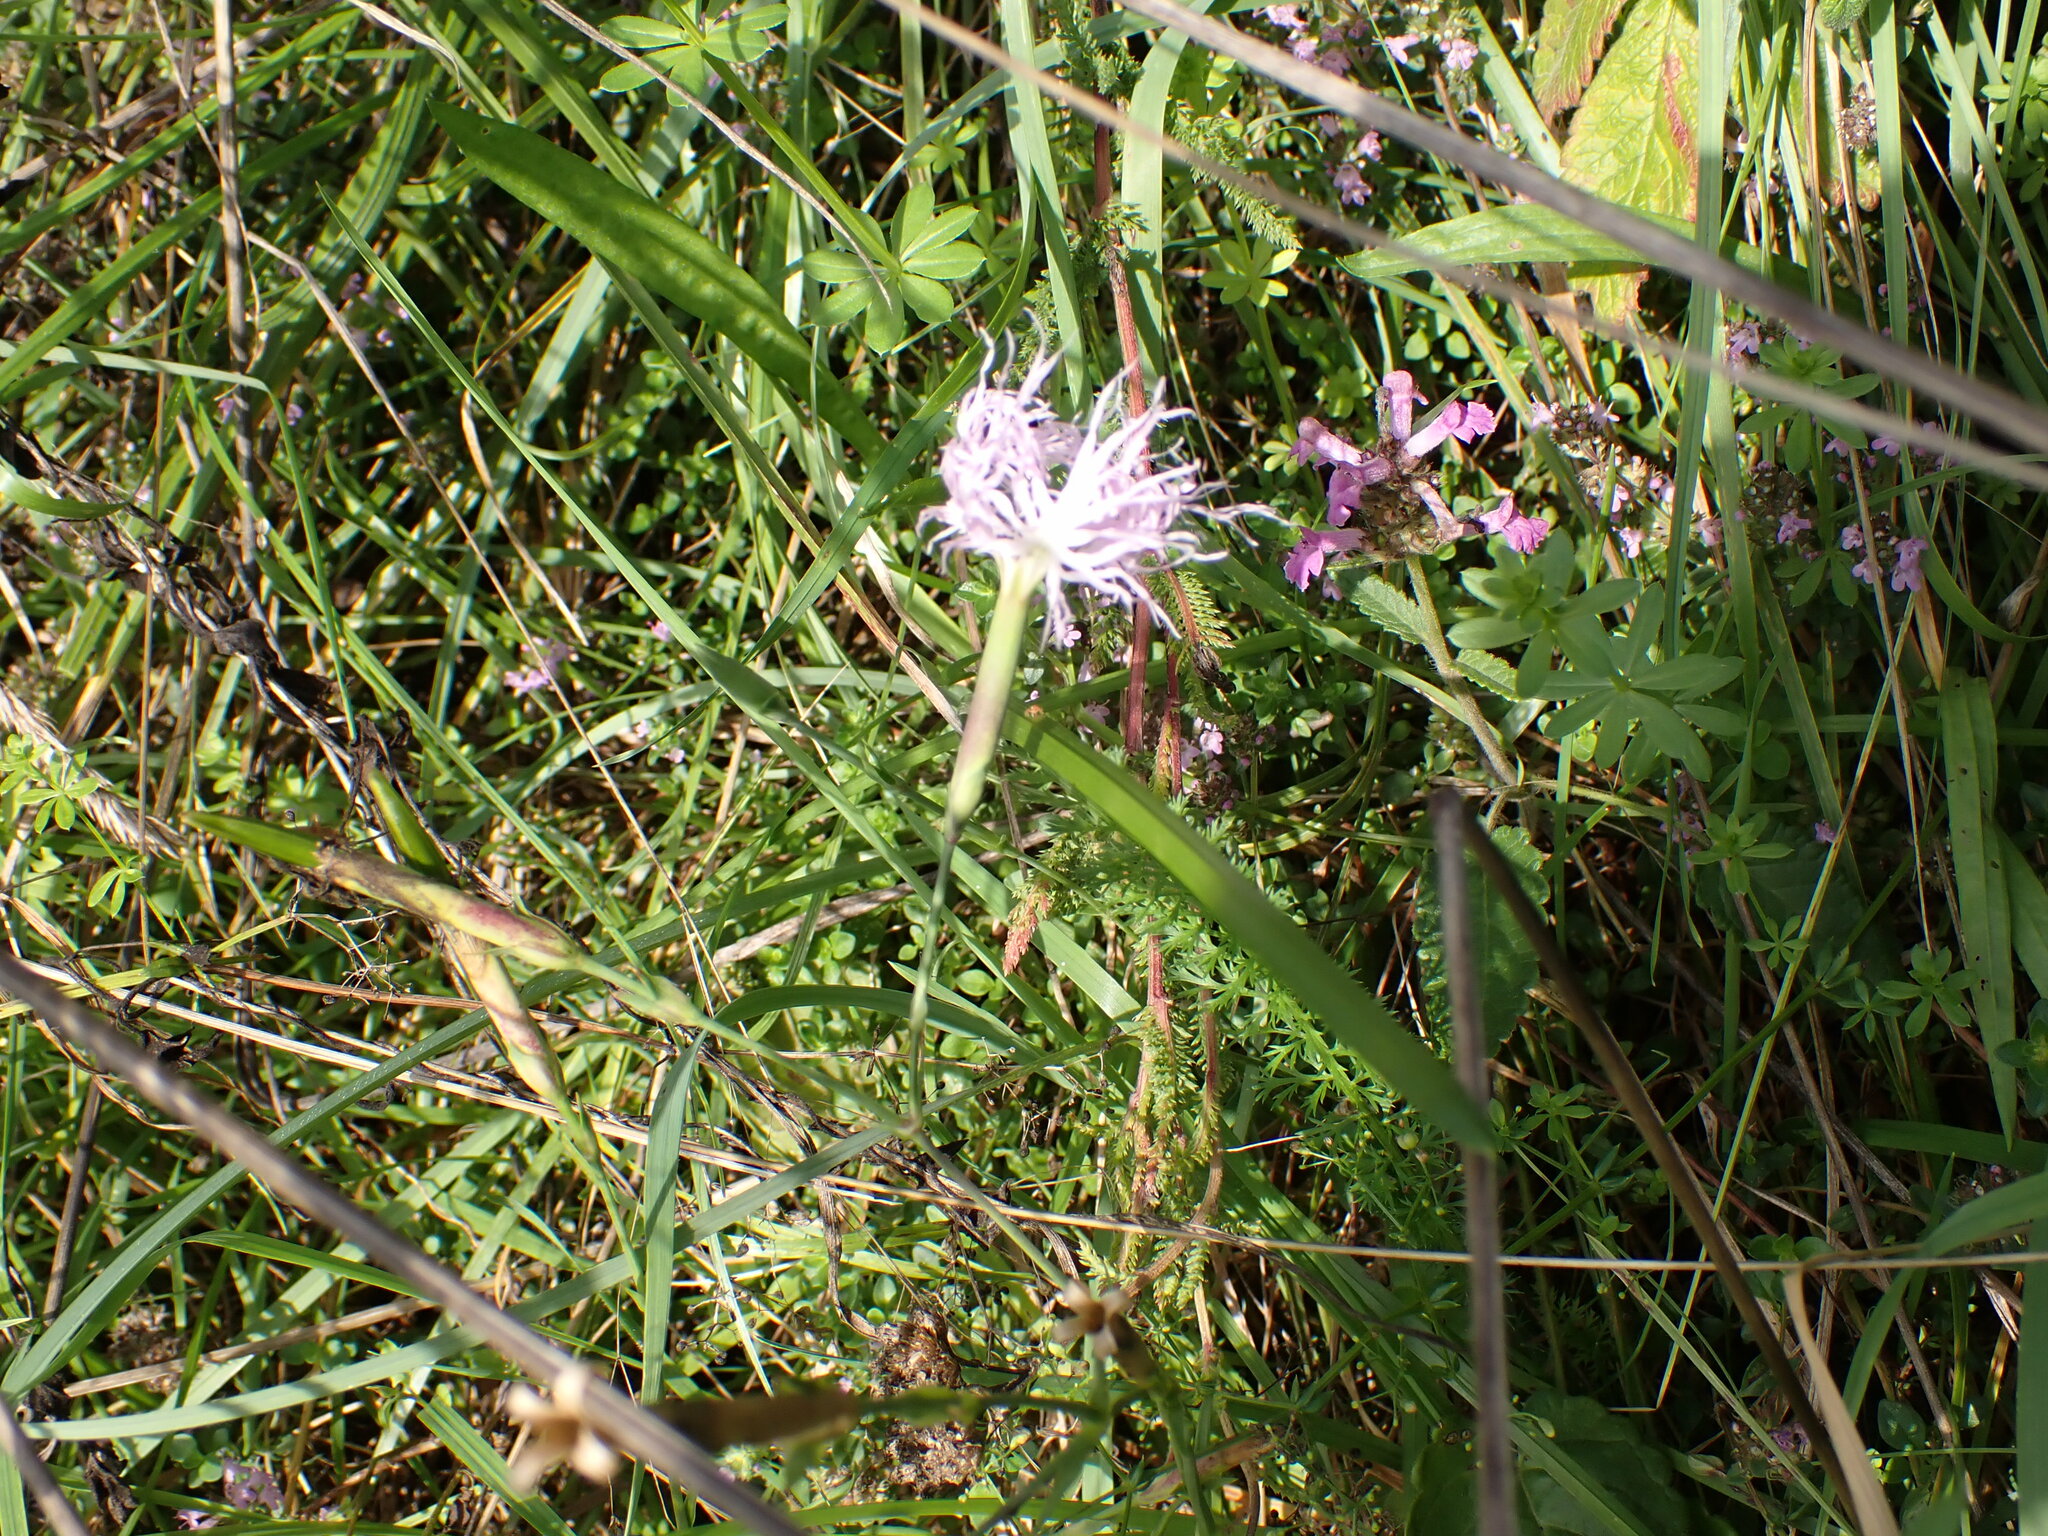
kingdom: Plantae
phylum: Tracheophyta
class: Magnoliopsida
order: Caryophyllales
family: Caryophyllaceae
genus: Dianthus
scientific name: Dianthus superbus
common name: Fringed pink
